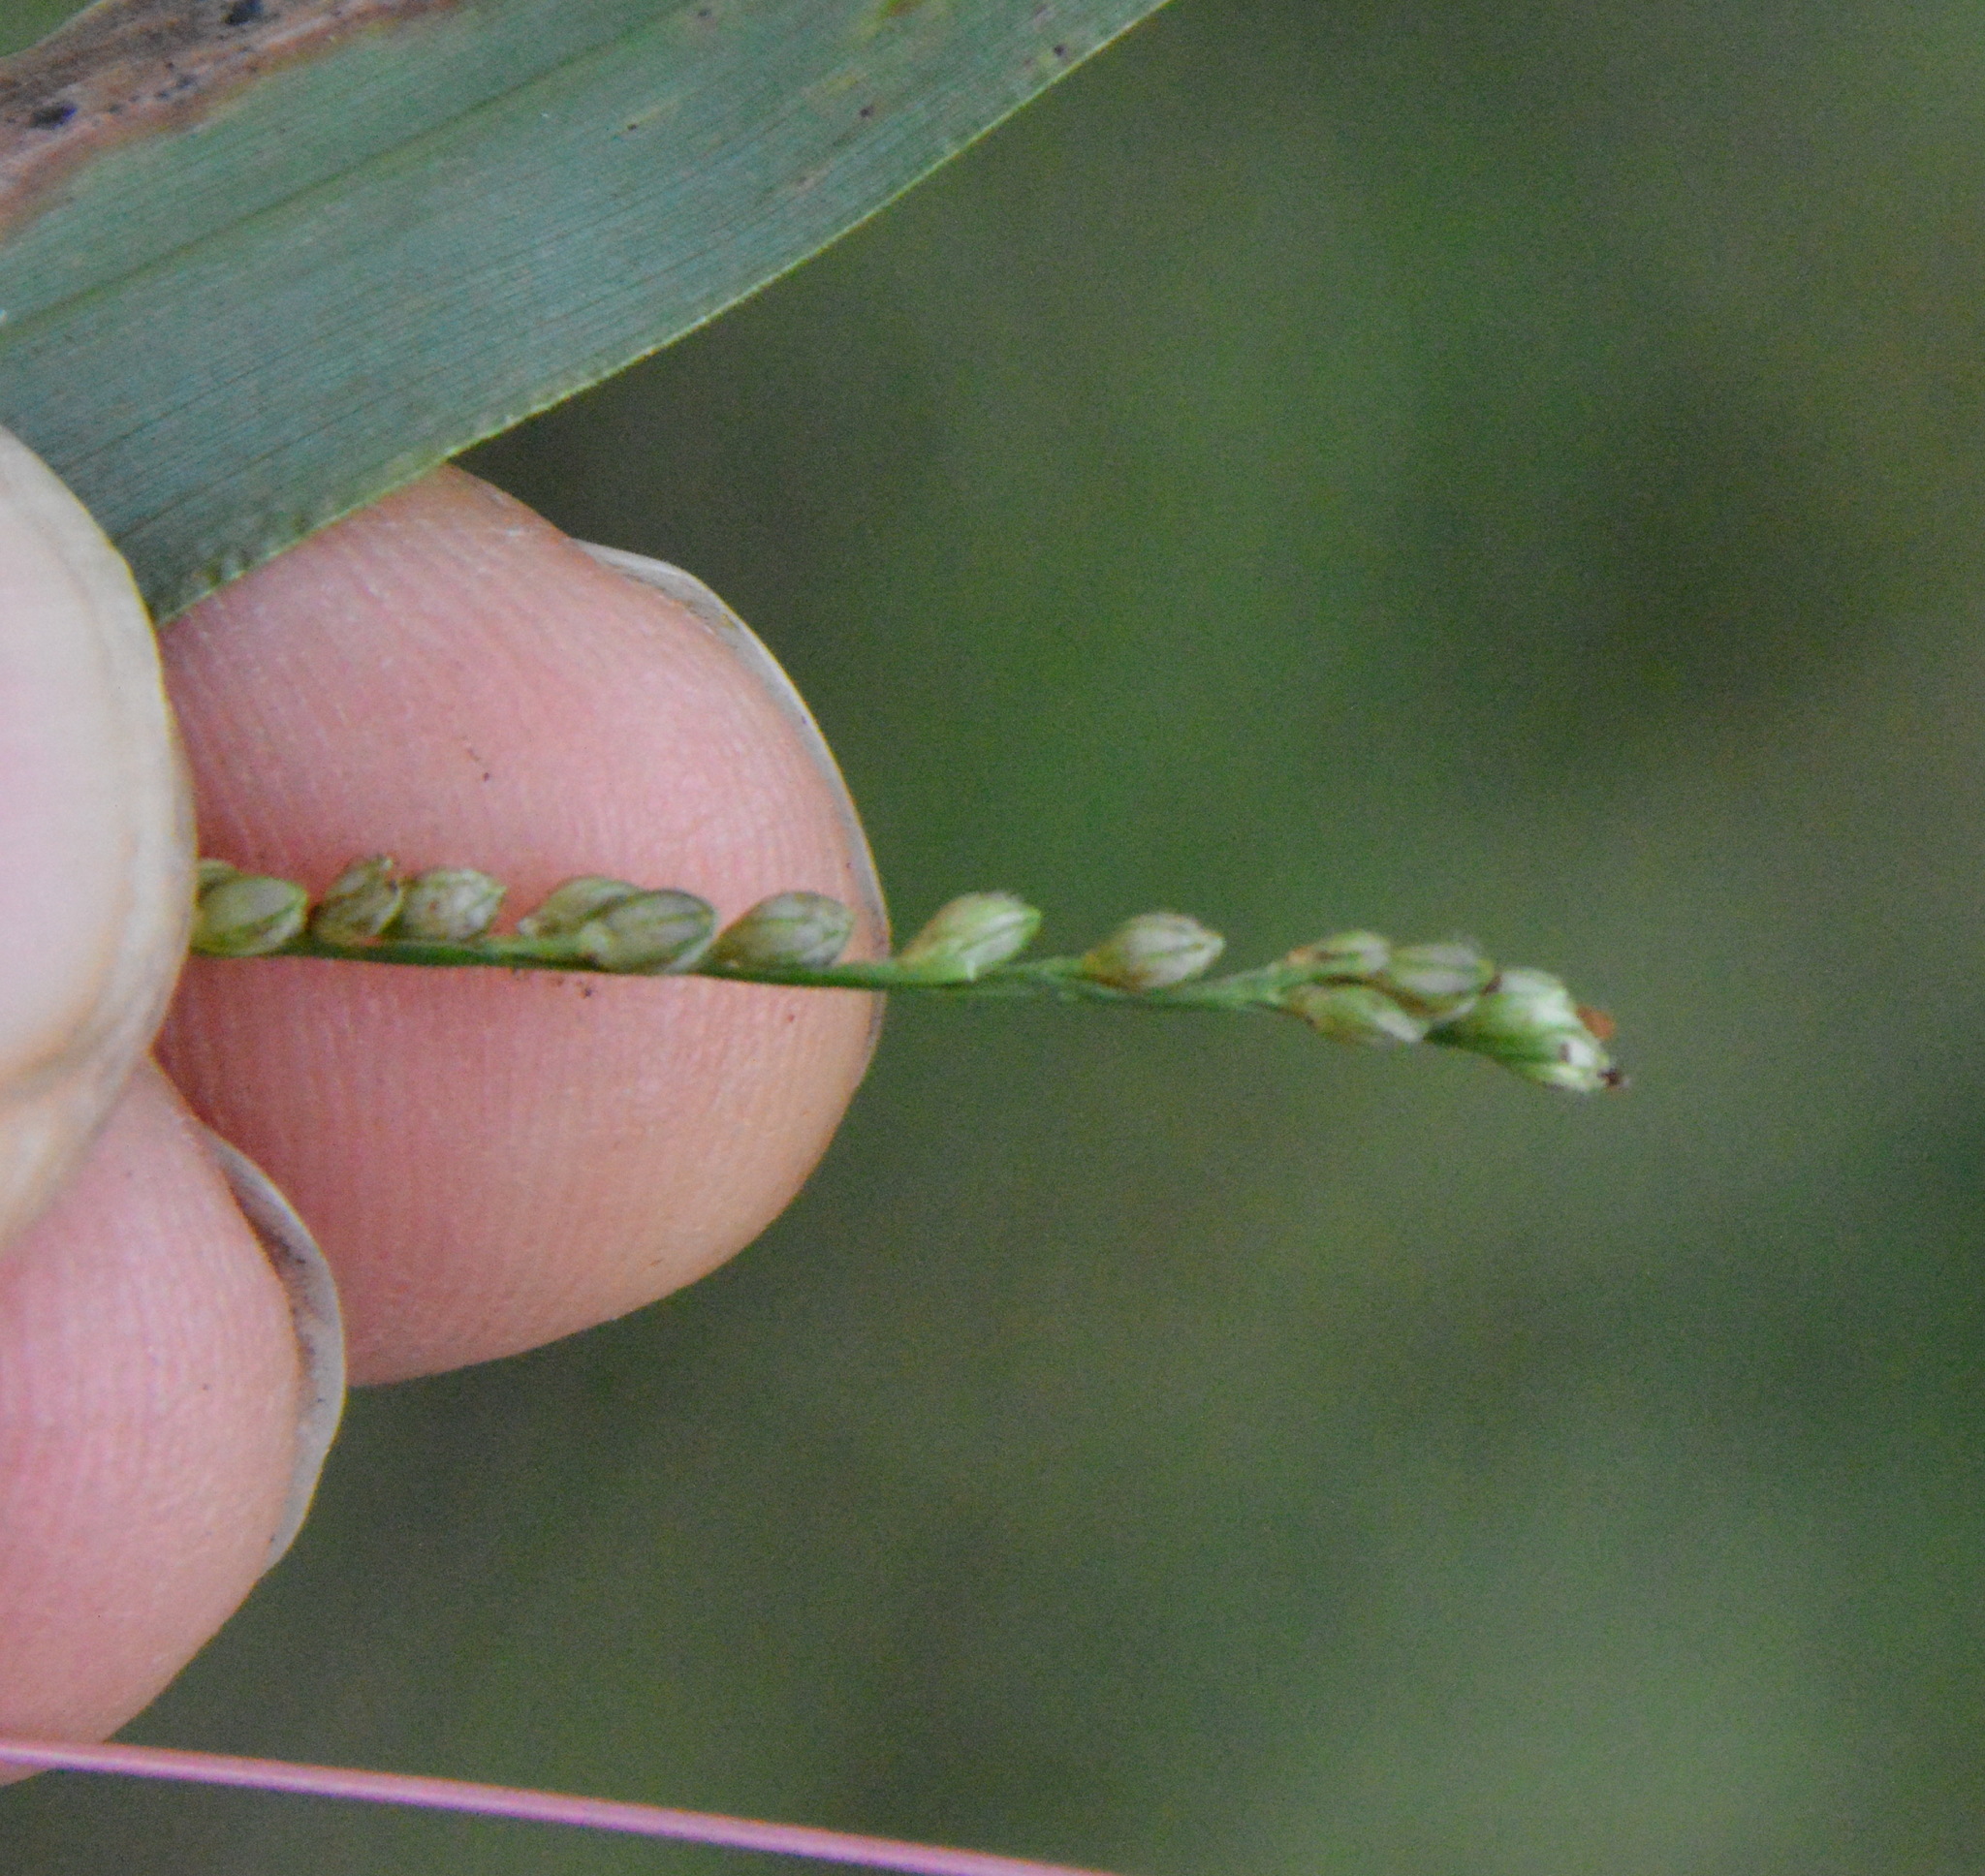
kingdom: Plantae
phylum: Tracheophyta
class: Liliopsida
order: Poales
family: Poaceae
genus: Paspalum
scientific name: Paspalum langei
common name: Rusty-seed paspalum
